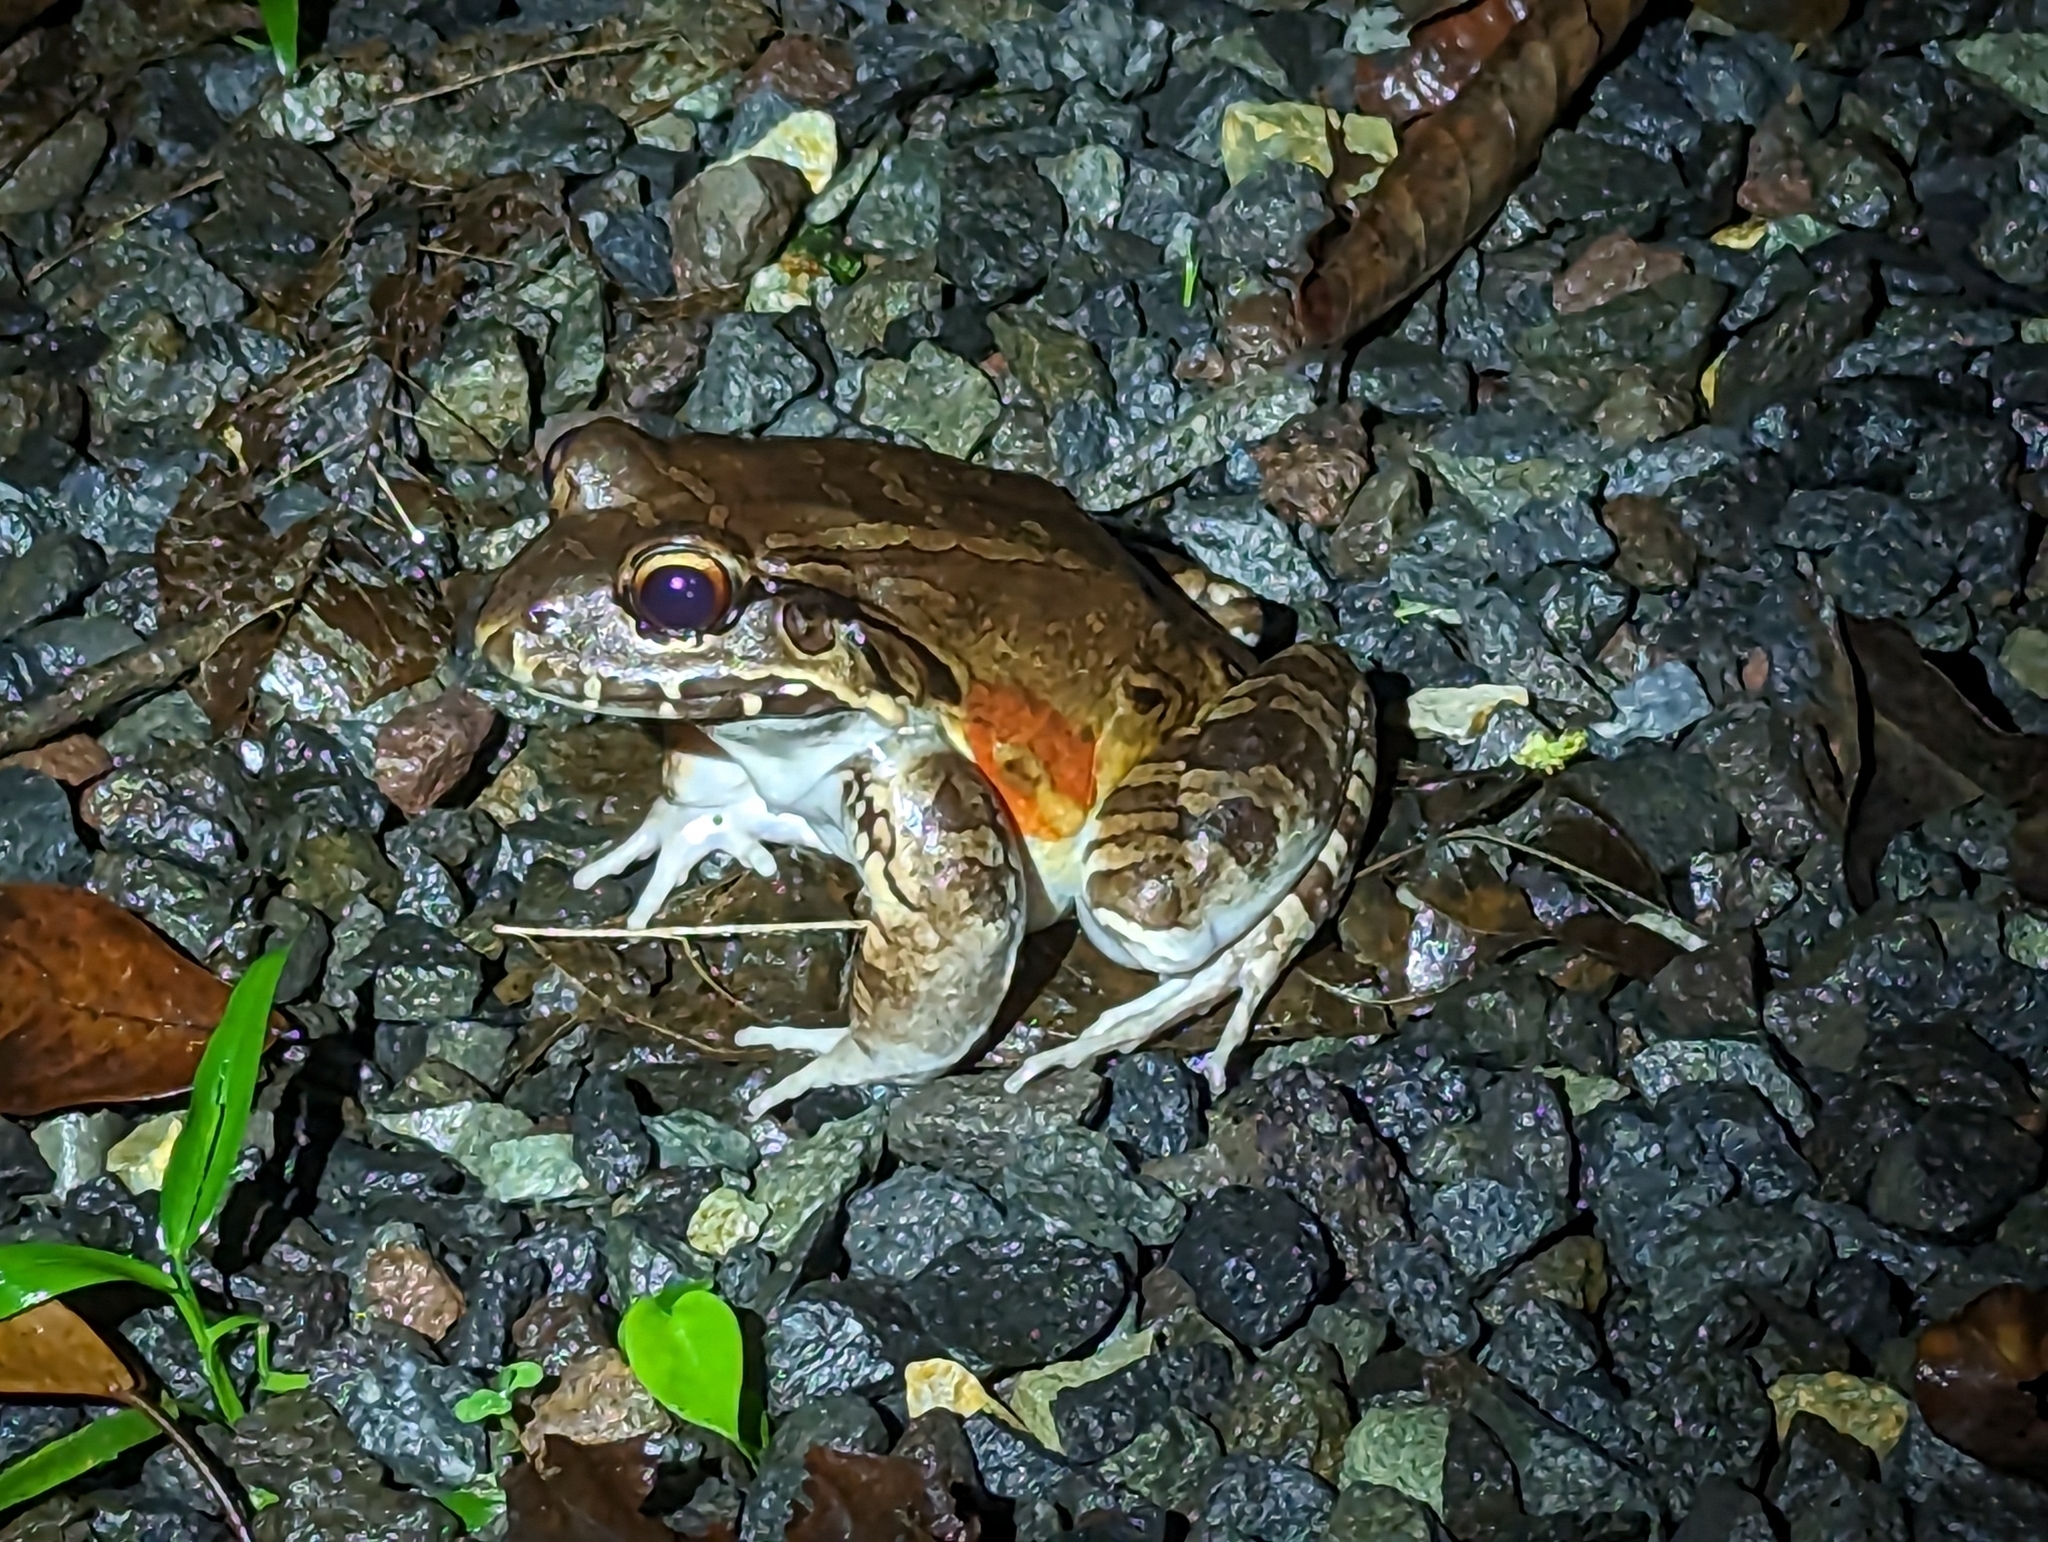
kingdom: Animalia
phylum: Chordata
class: Amphibia
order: Anura
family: Leptodactylidae
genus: Leptodactylus
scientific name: Leptodactylus savagei
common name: Savage's thin-toed frog
